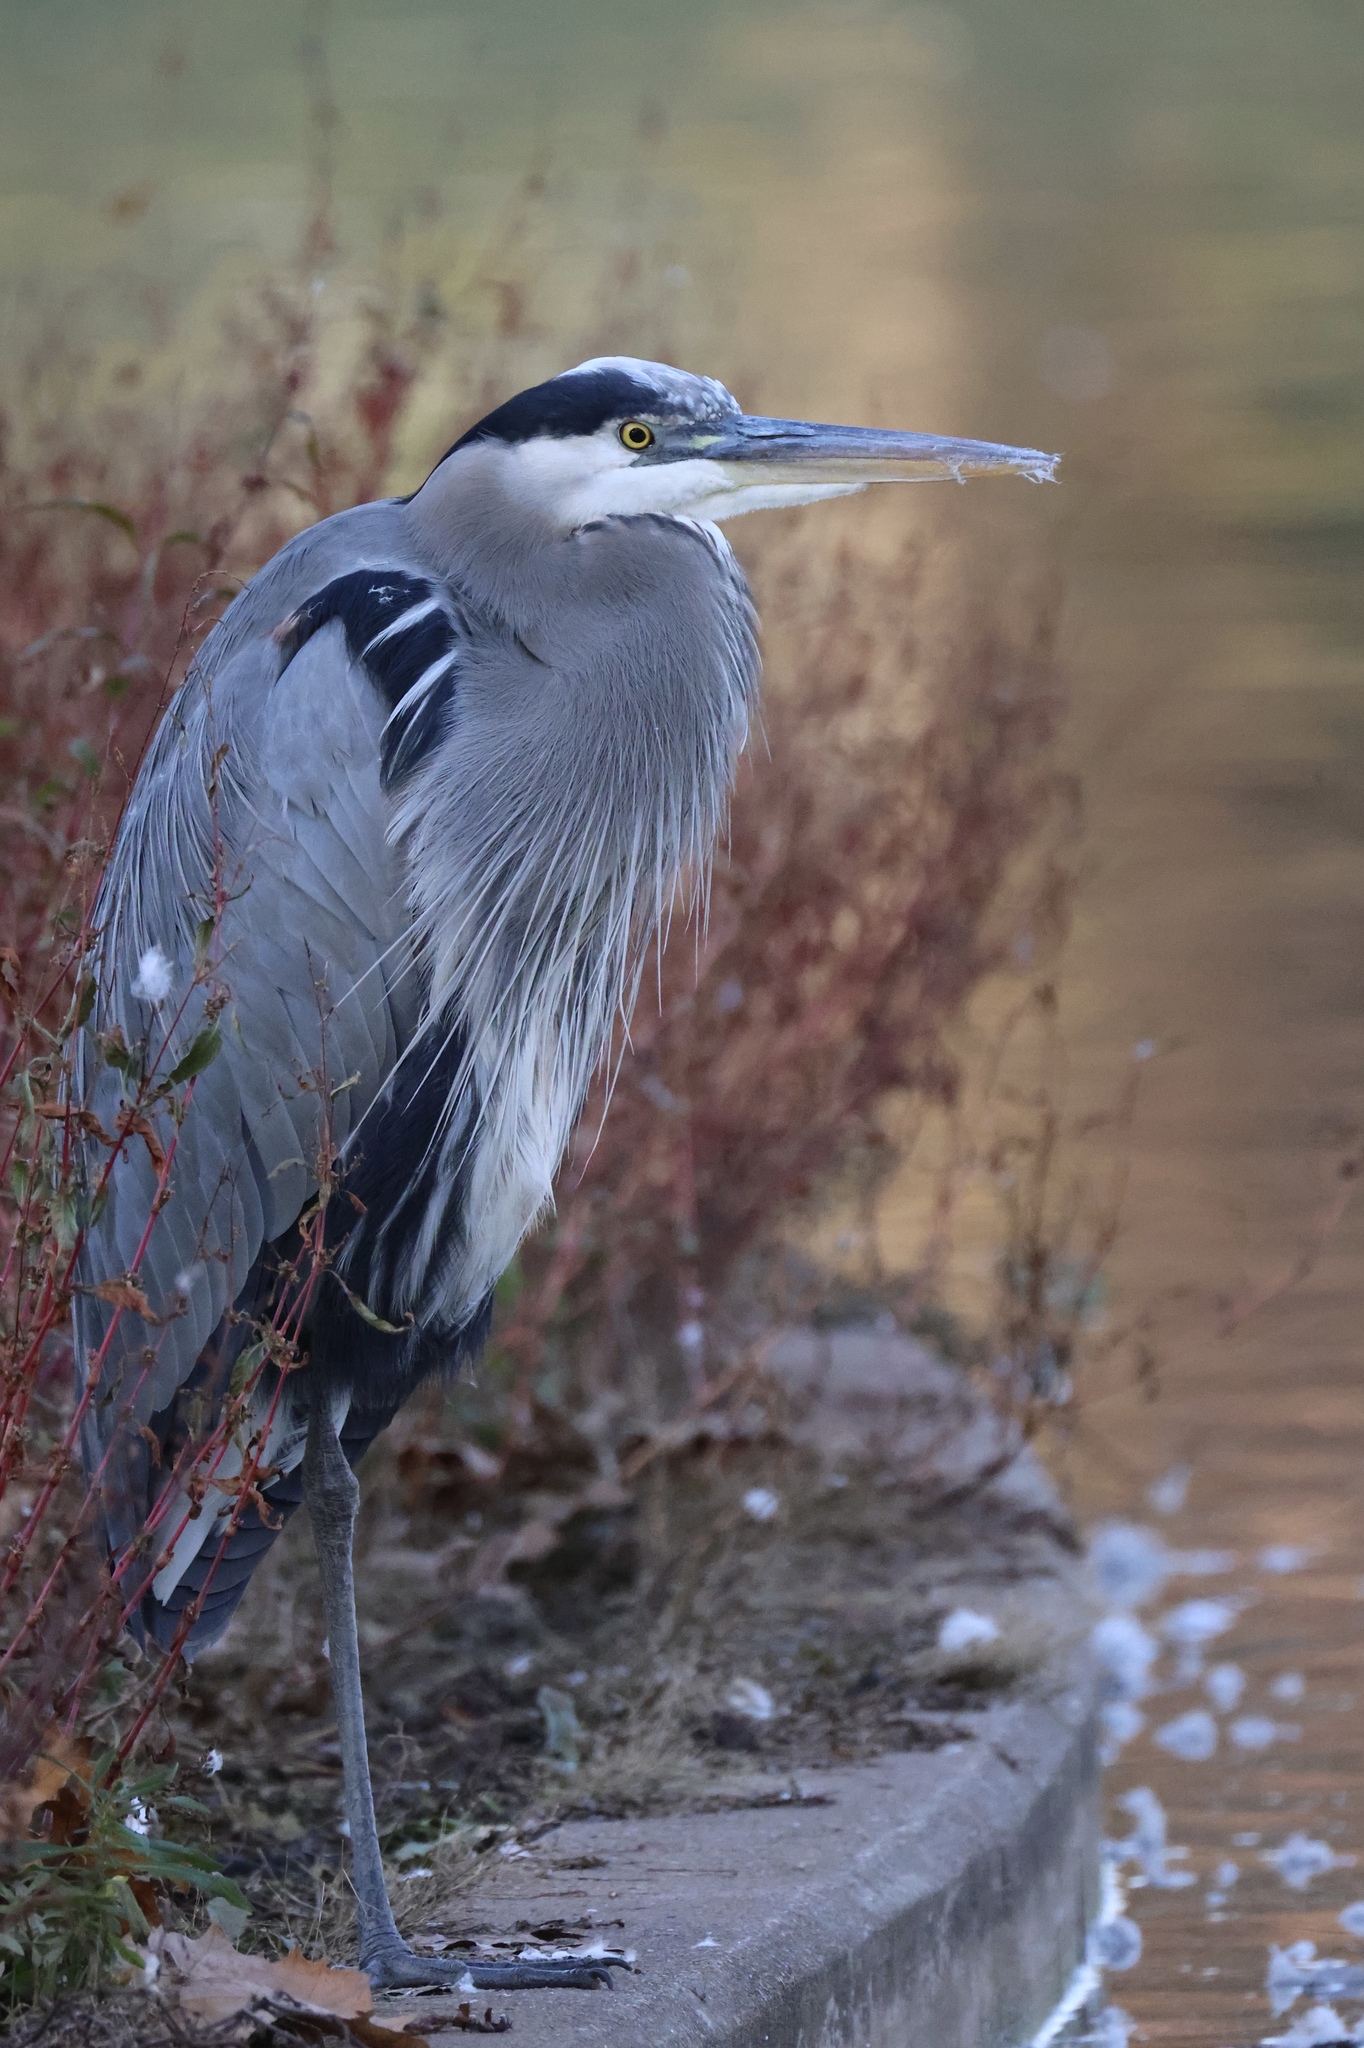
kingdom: Animalia
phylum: Chordata
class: Aves
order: Pelecaniformes
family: Ardeidae
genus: Ardea
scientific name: Ardea herodias
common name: Great blue heron
